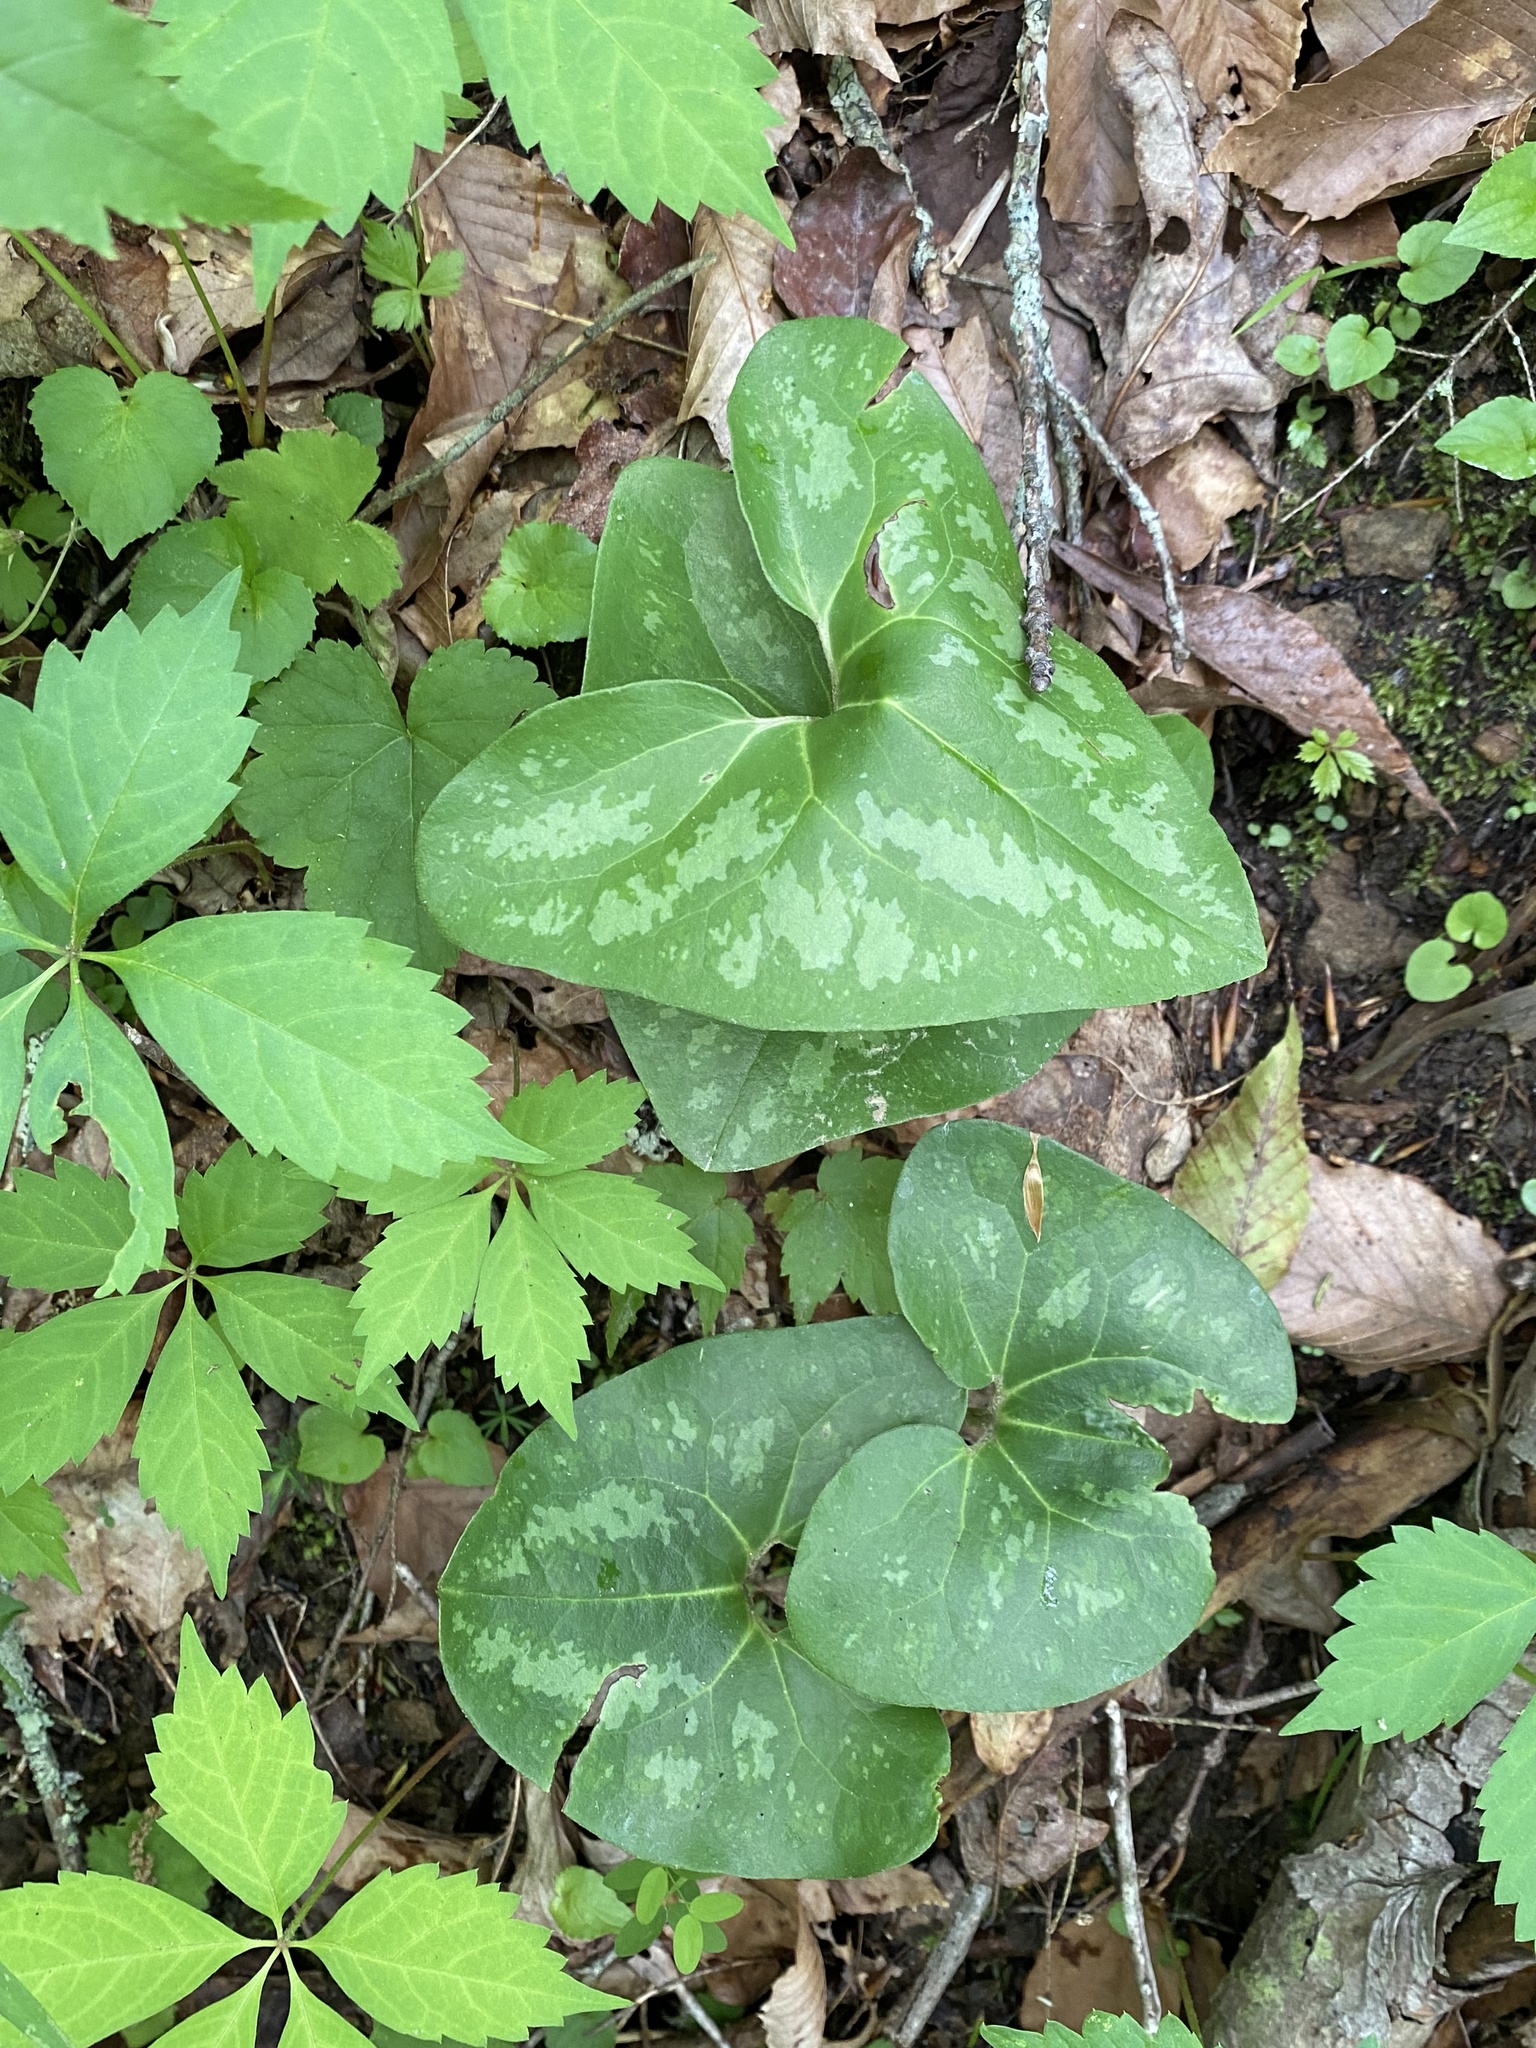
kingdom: Plantae
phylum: Tracheophyta
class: Magnoliopsida
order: Piperales
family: Aristolochiaceae
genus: Hexastylis
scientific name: Hexastylis arifolia
